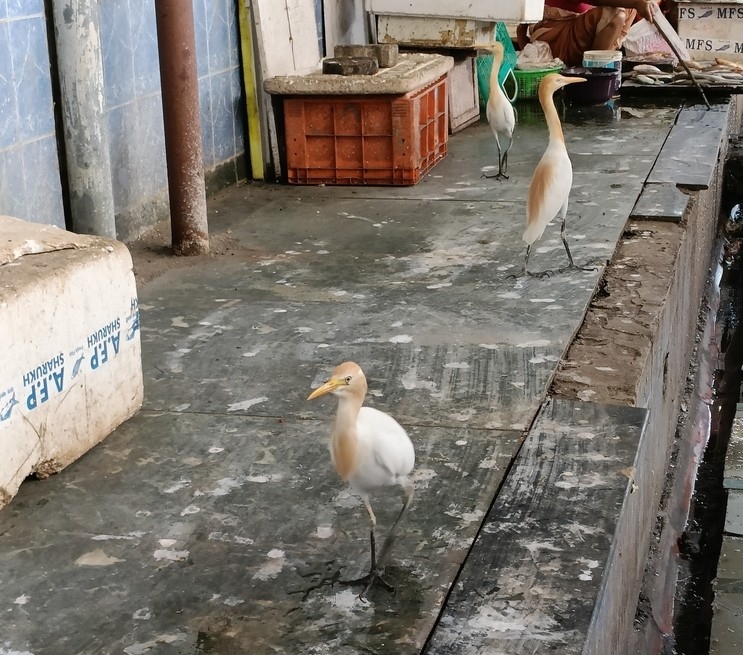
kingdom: Animalia
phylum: Chordata
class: Aves
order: Pelecaniformes
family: Ardeidae
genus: Bubulcus
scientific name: Bubulcus coromandus
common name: Eastern cattle egret
